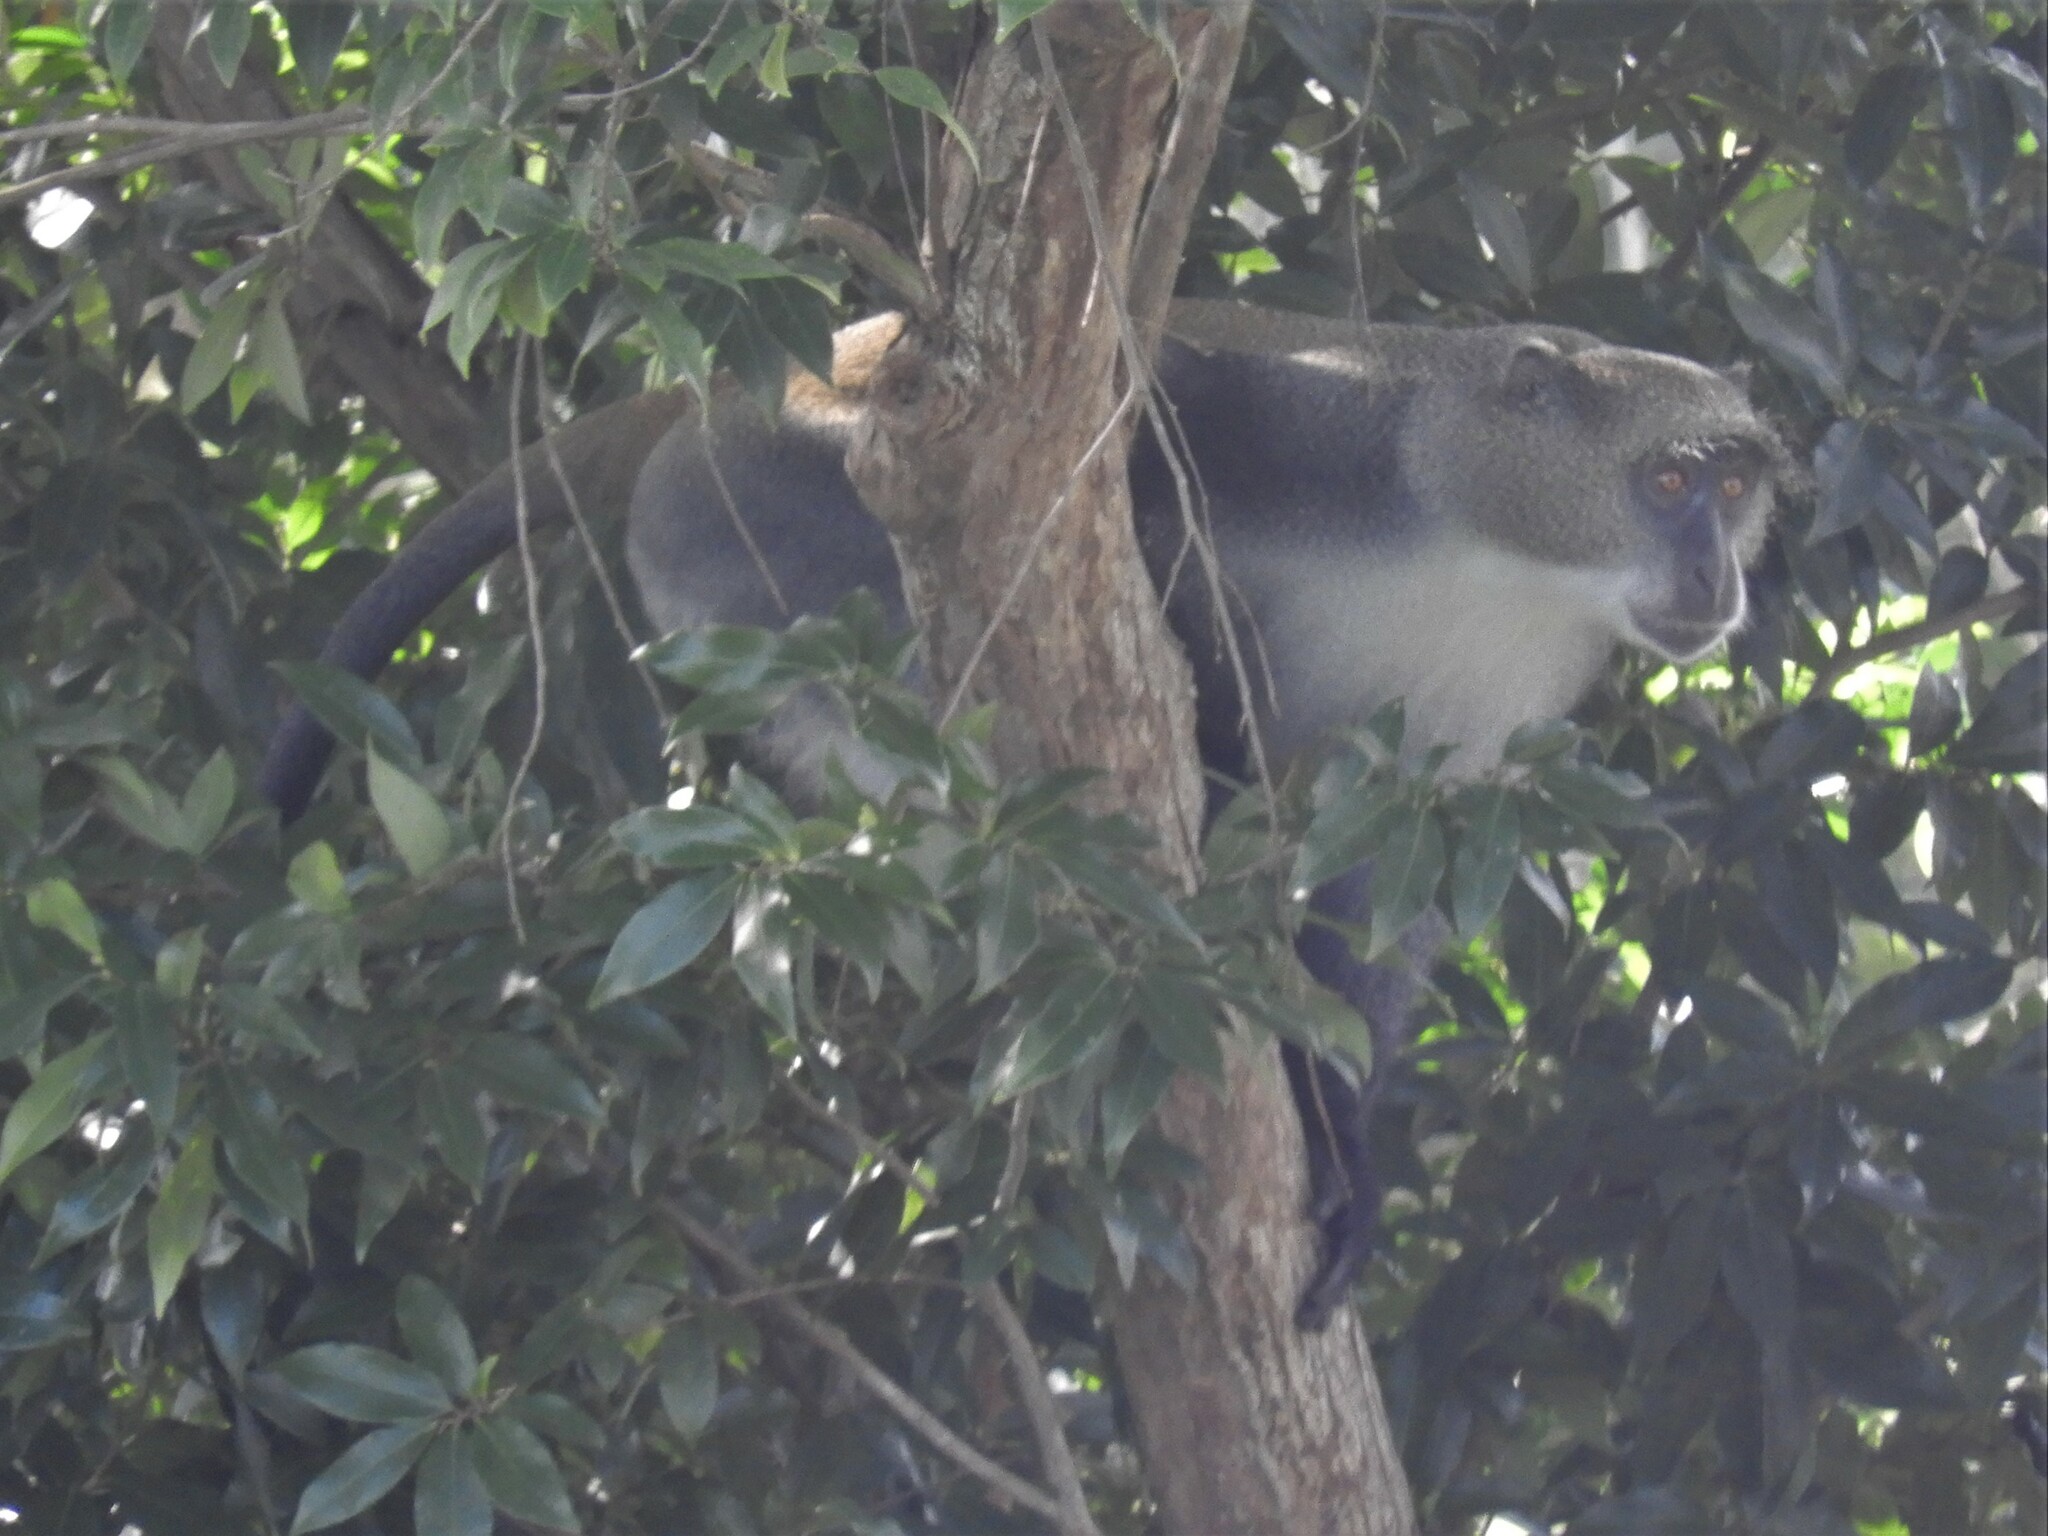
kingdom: Animalia
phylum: Chordata
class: Mammalia
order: Primates
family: Cercopithecidae
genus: Cercopithecus
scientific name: Cercopithecus mitis
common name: Blue monkey
